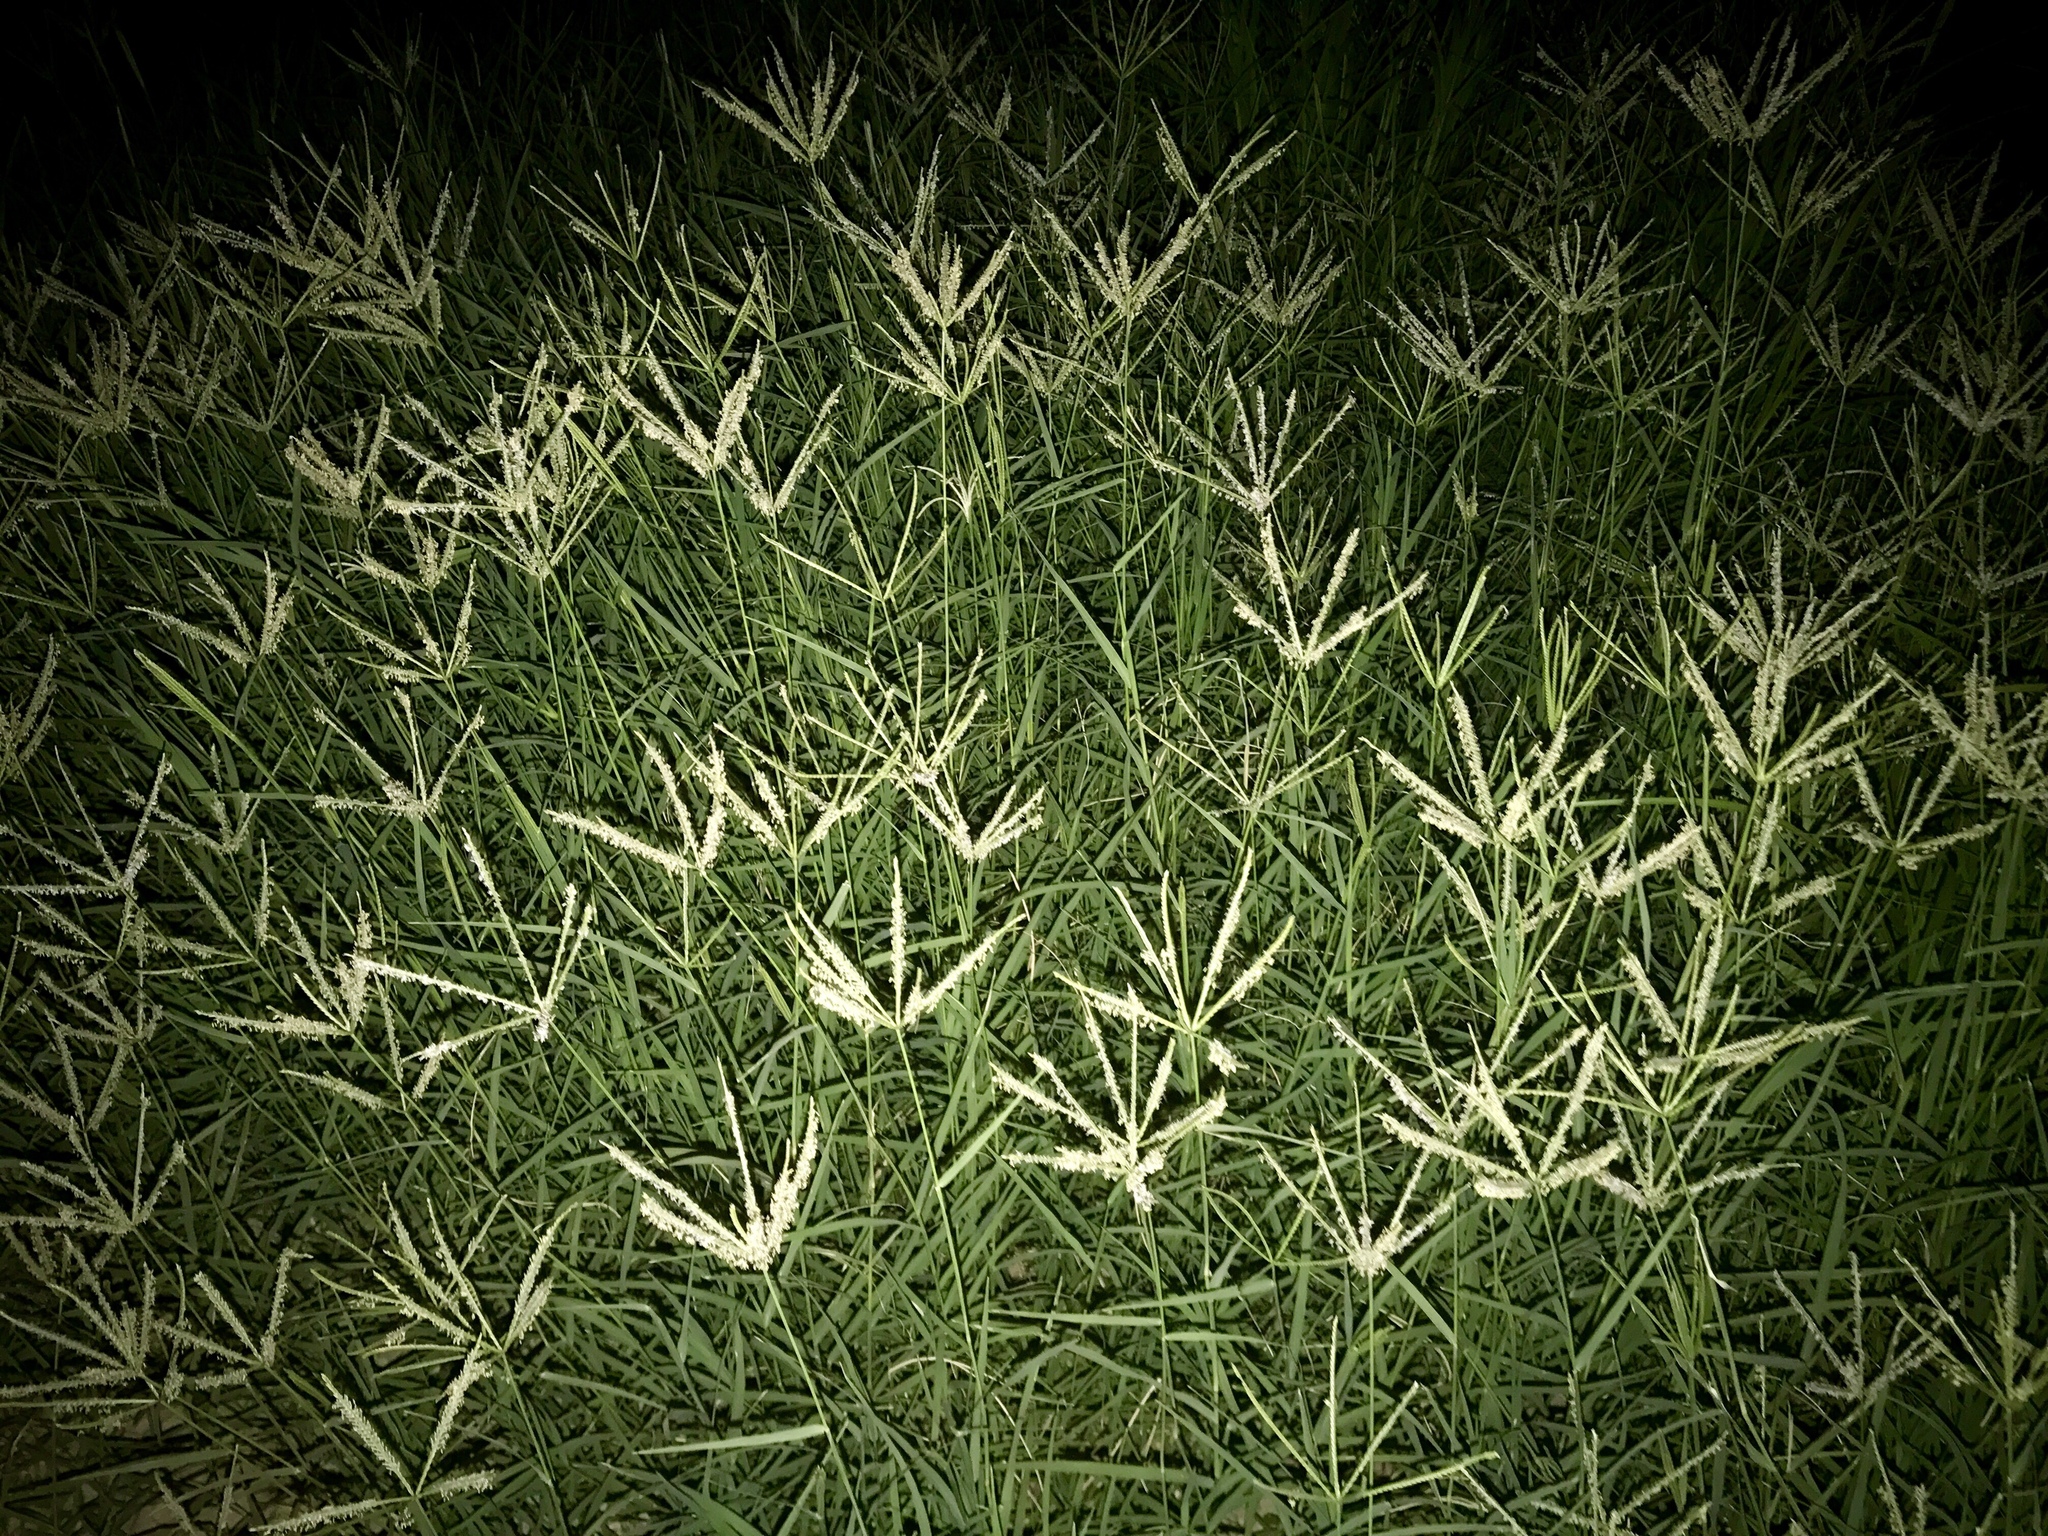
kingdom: Plantae
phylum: Tracheophyta
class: Liliopsida
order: Poales
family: Poaceae
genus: Cynodon
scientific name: Cynodon dactylon
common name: Bermuda grass
